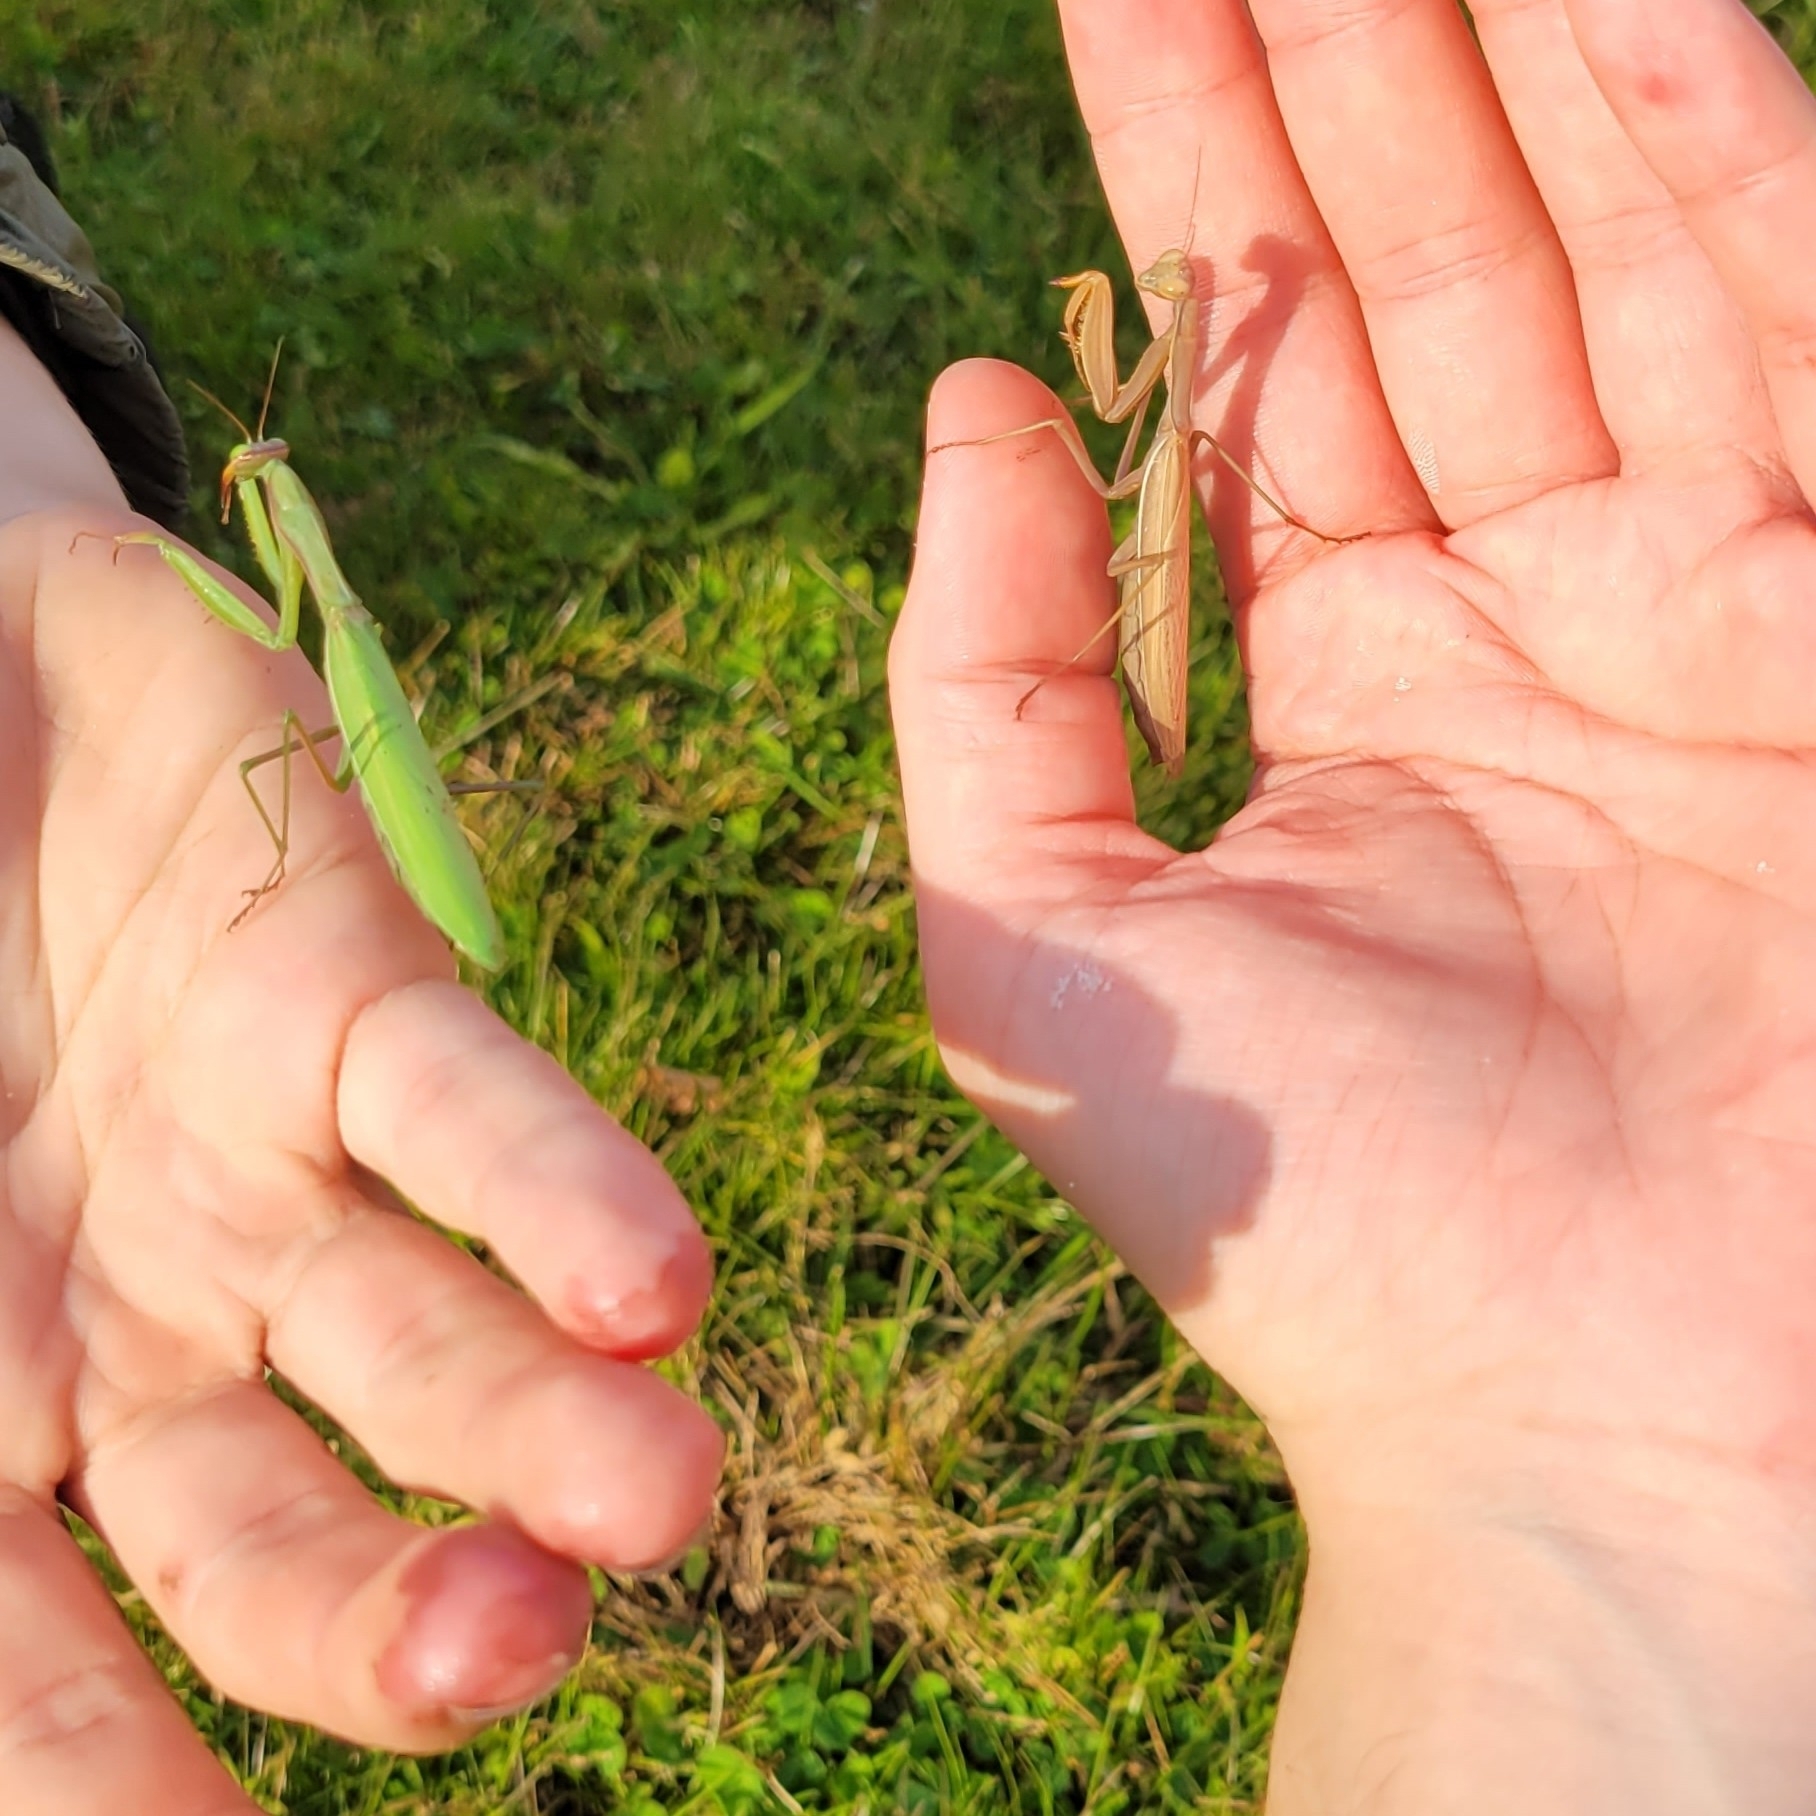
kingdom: Animalia
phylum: Arthropoda
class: Insecta
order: Mantodea
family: Mantidae
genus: Mantis
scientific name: Mantis religiosa
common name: Praying mantis
